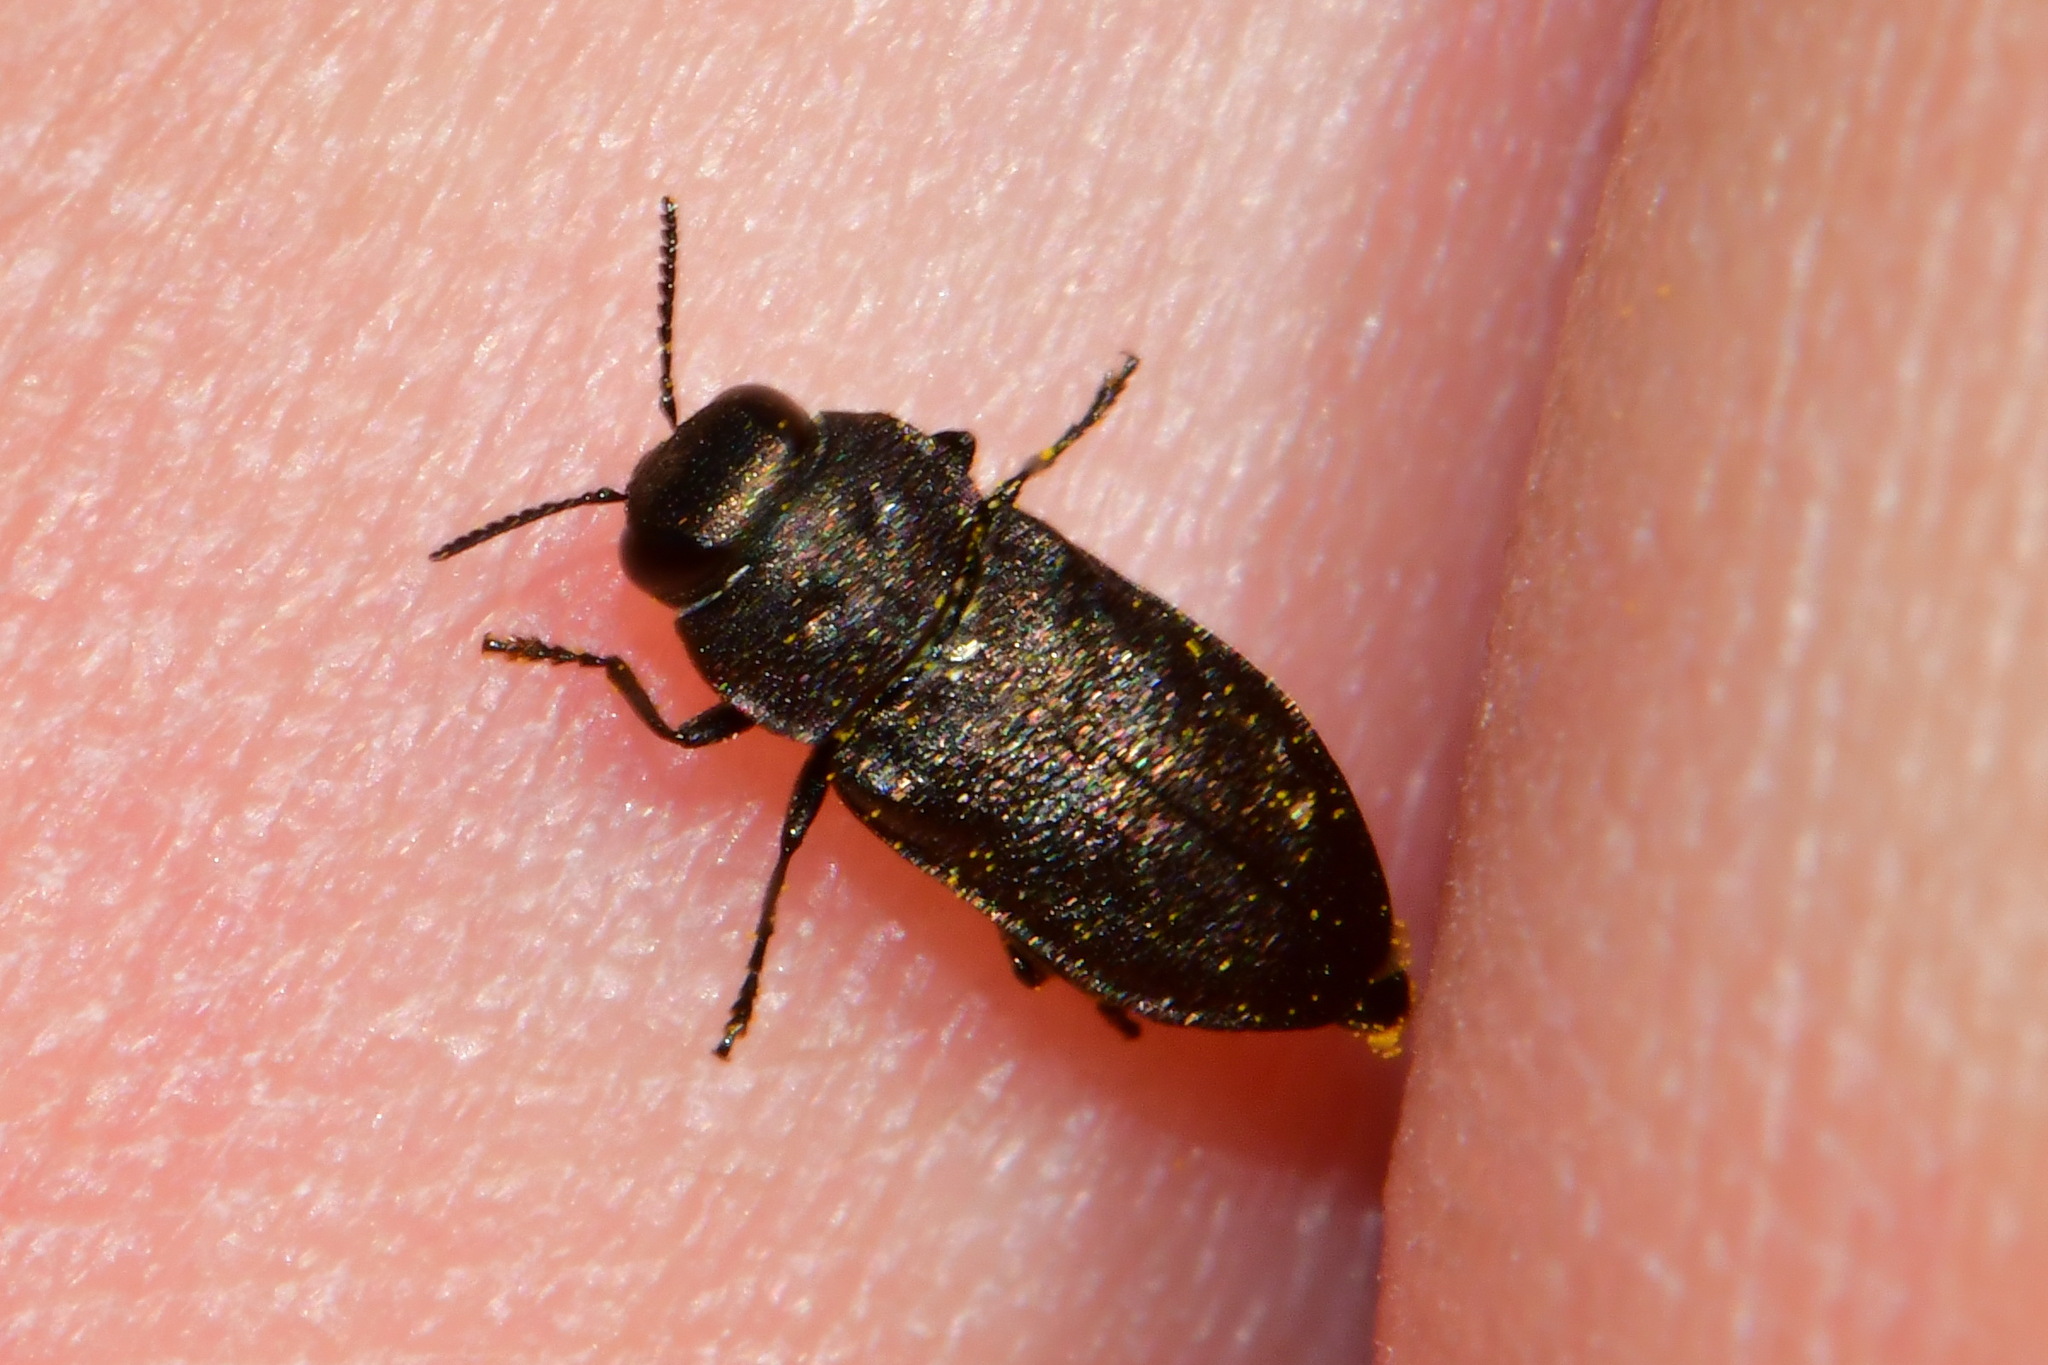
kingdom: Animalia
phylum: Arthropoda
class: Insecta
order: Coleoptera
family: Buprestidae
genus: Anthaxia
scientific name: Anthaxia quadripunctata
